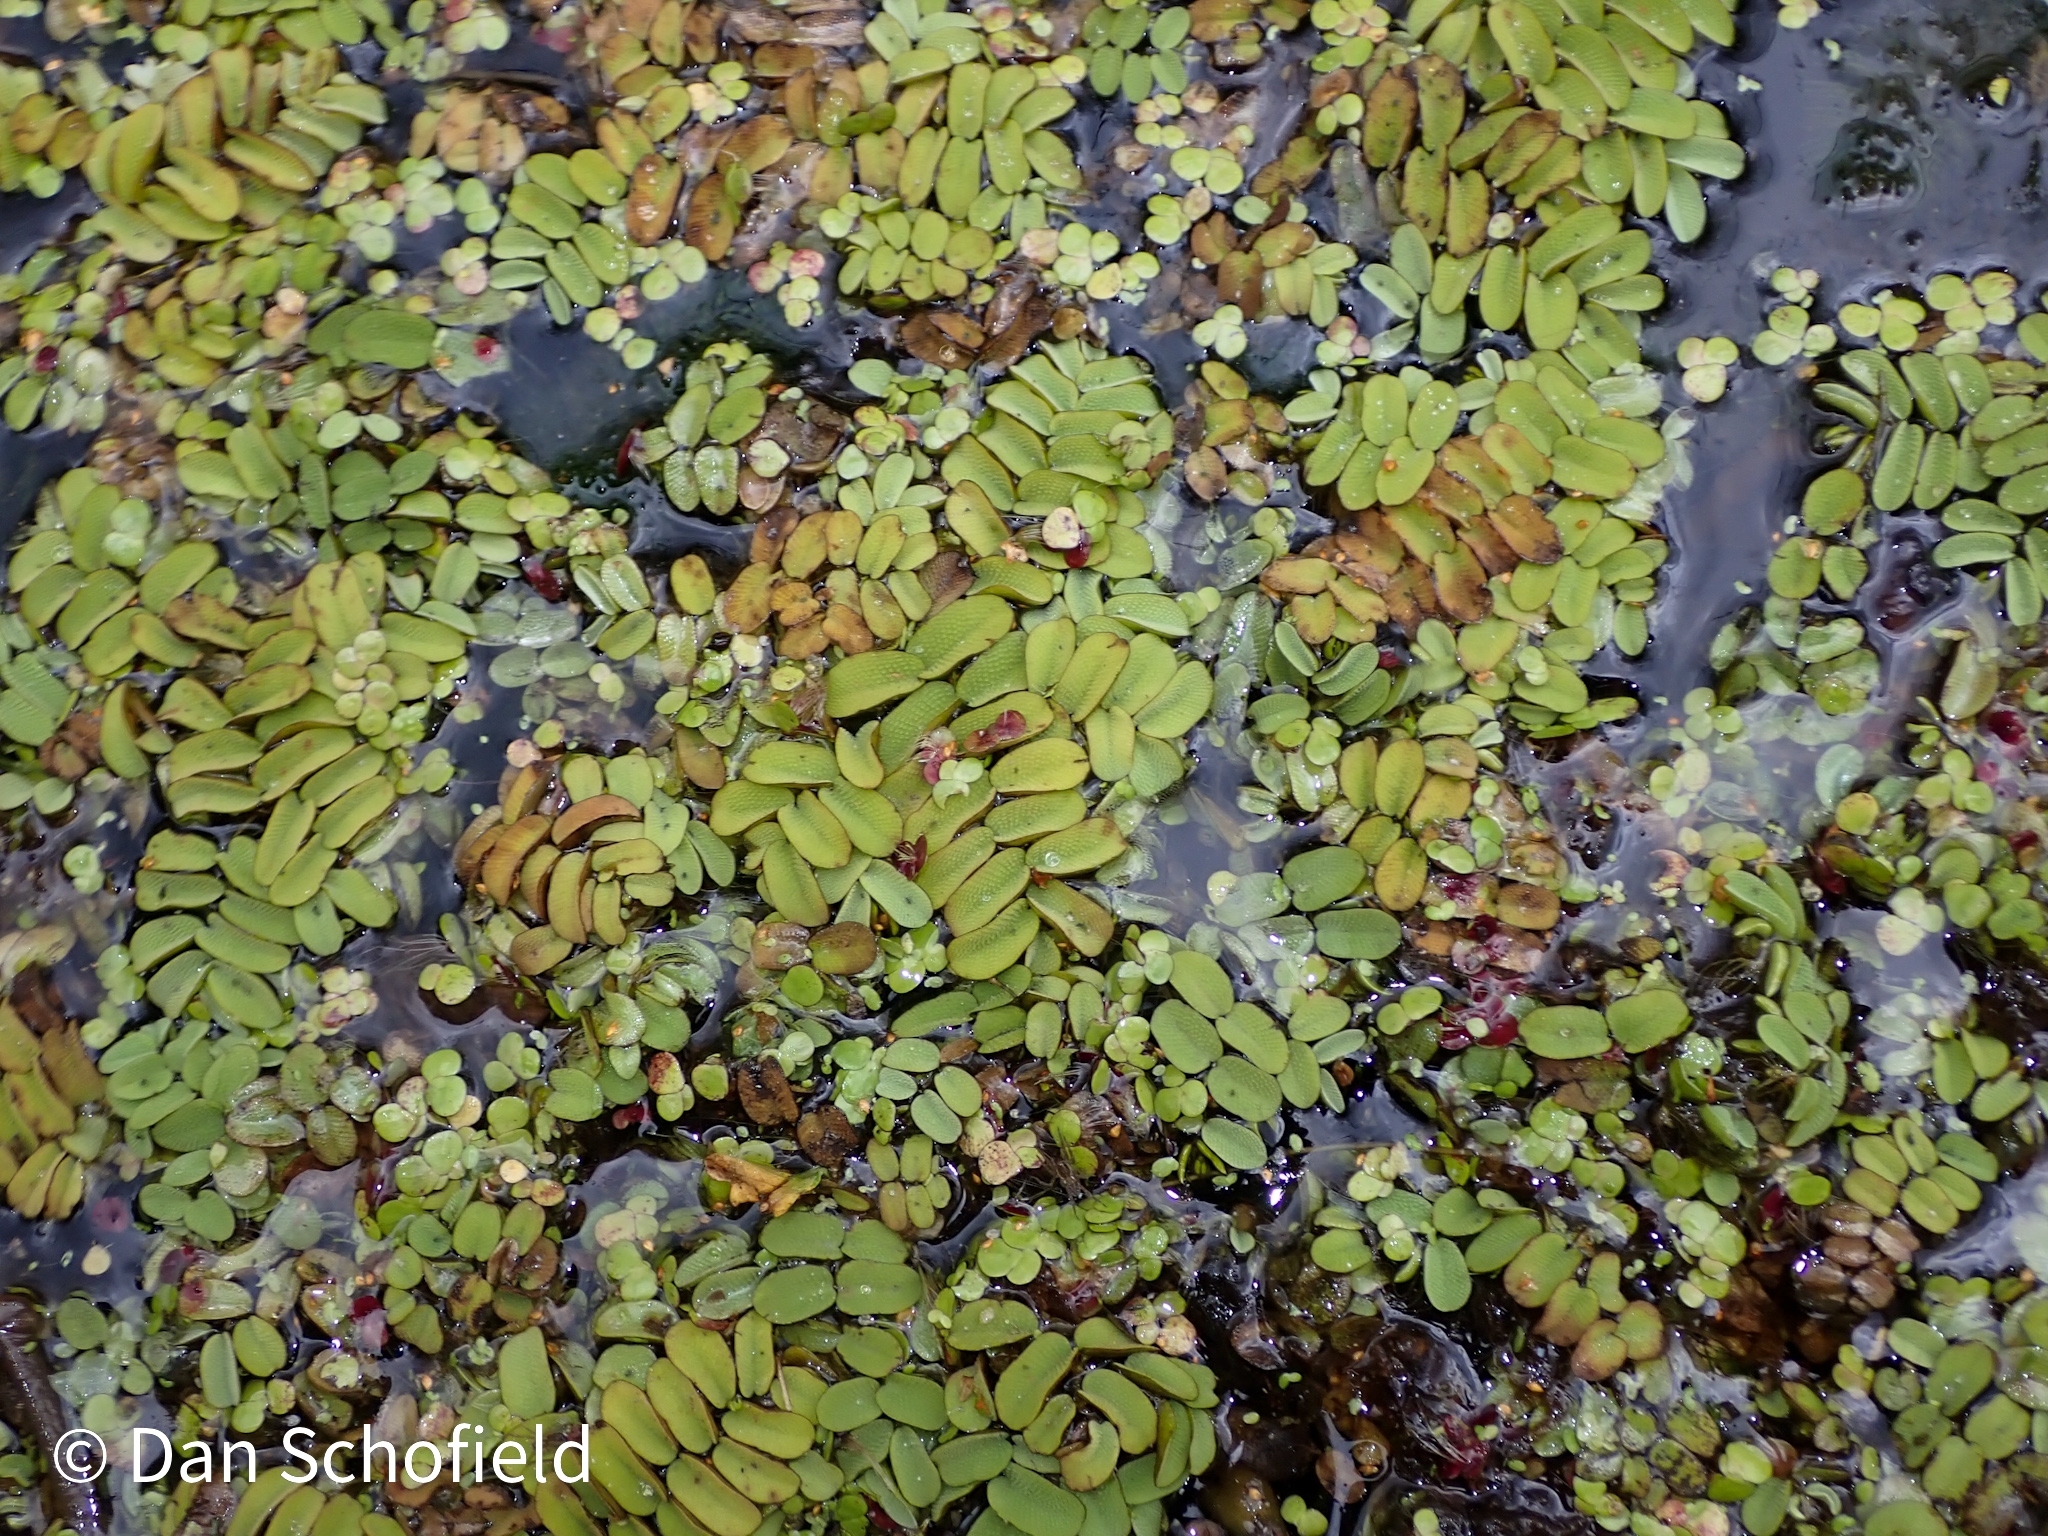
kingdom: Plantae
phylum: Tracheophyta
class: Polypodiopsida
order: Salviniales
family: Salviniaceae
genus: Salvinia
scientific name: Salvinia natans
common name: Floating fern
